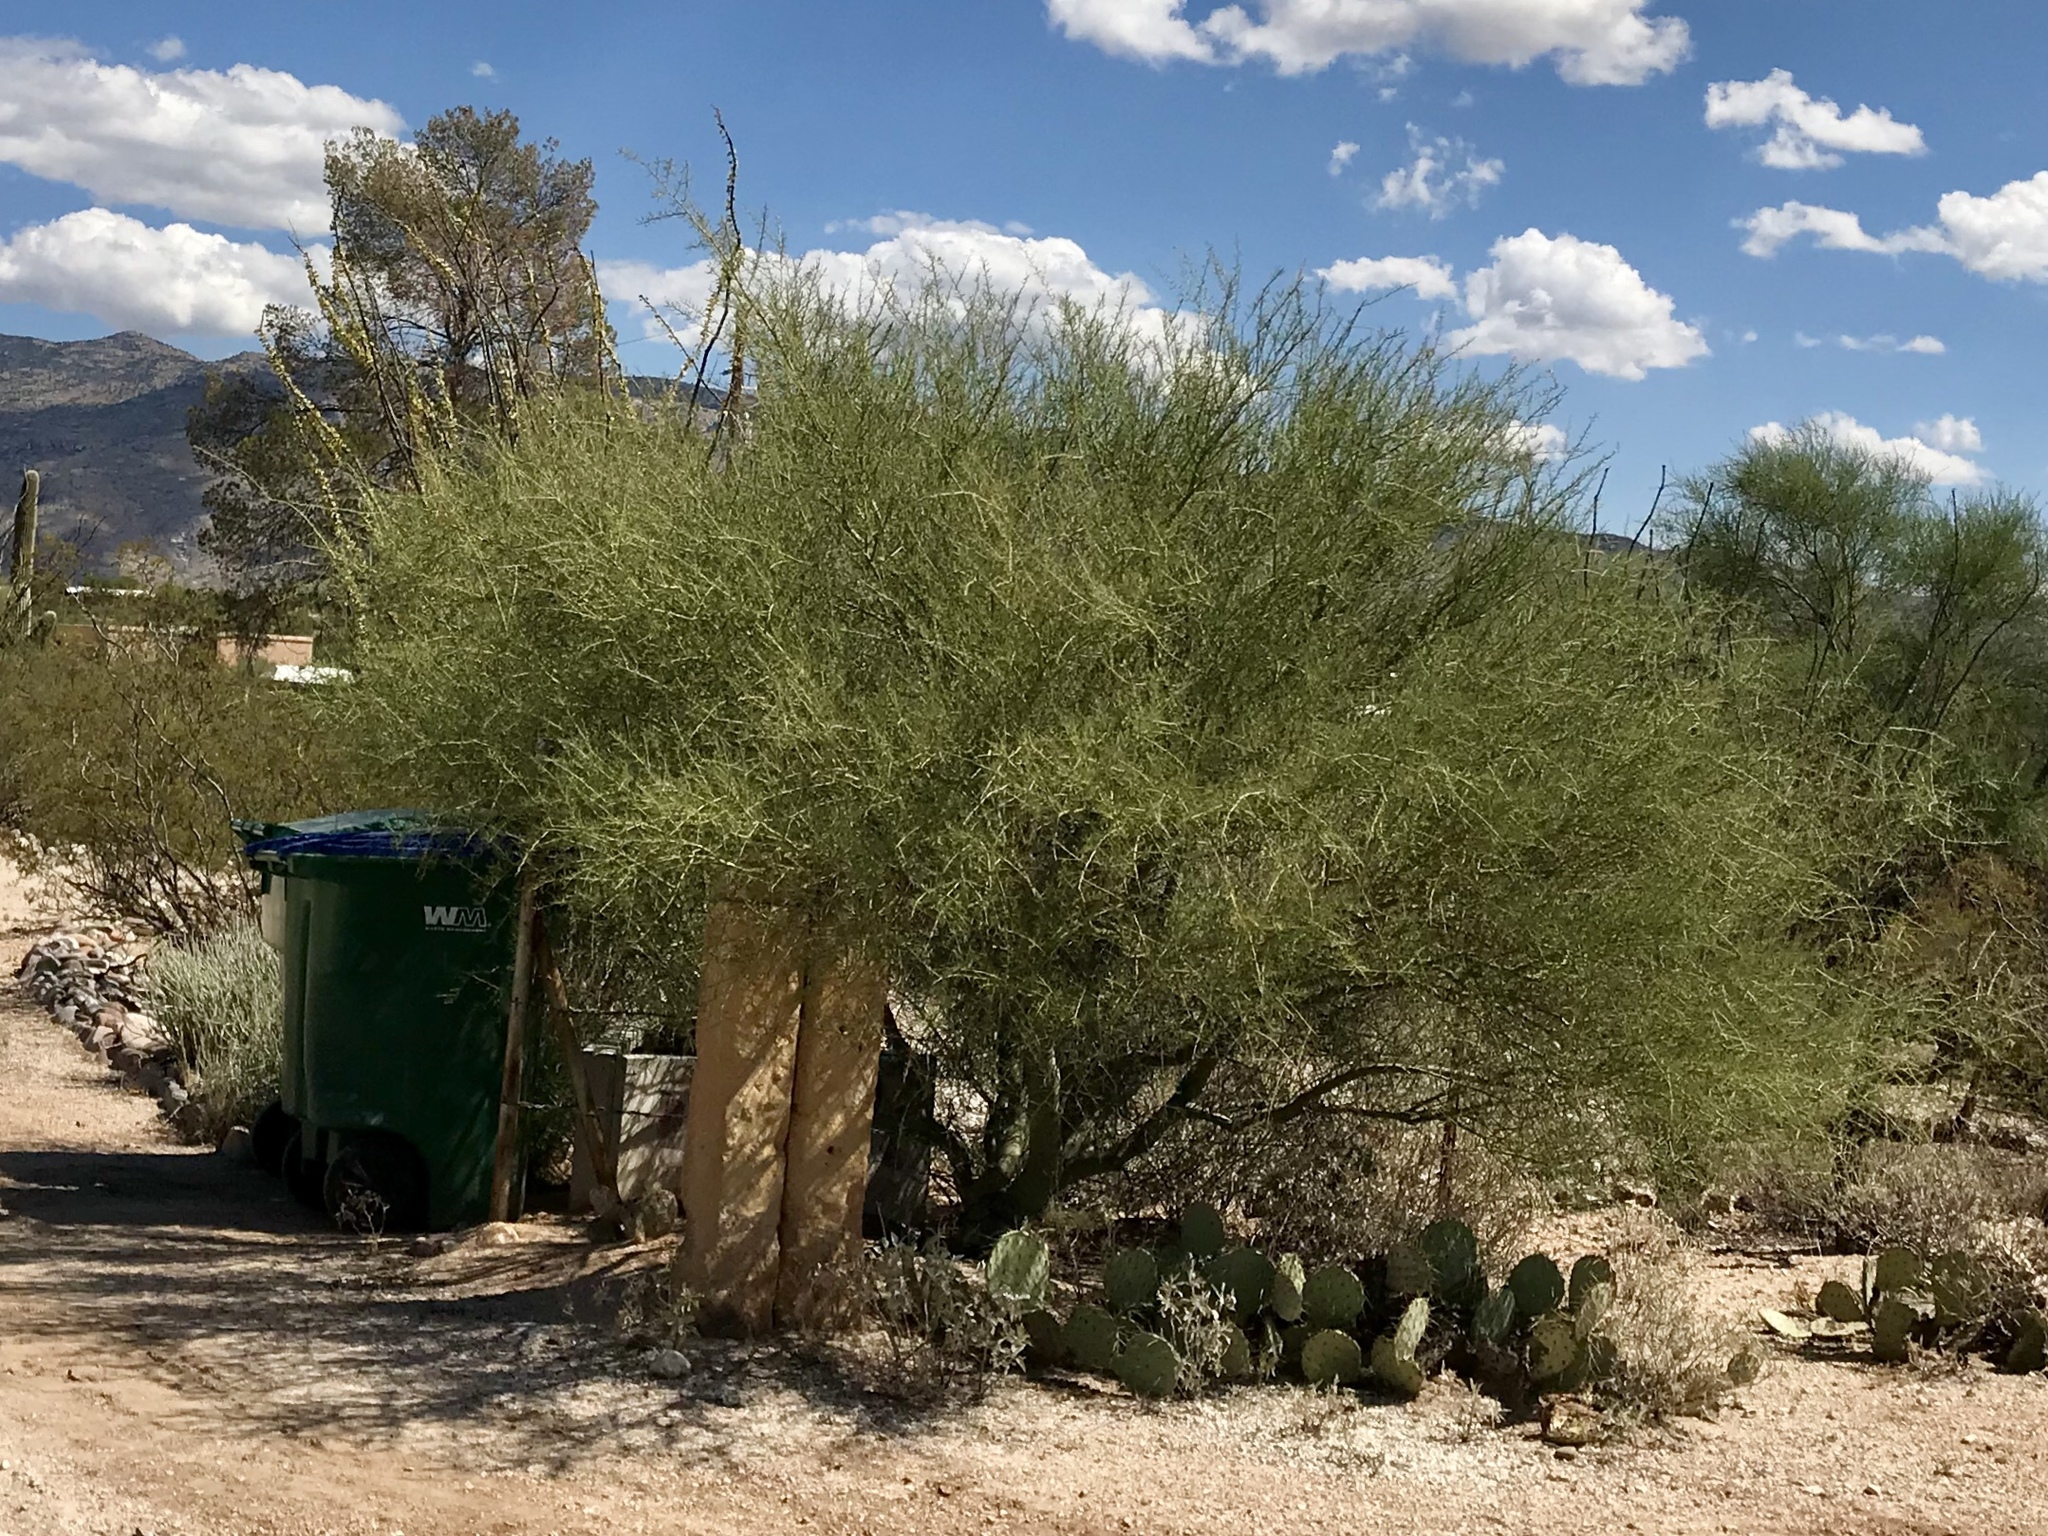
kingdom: Plantae
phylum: Tracheophyta
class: Magnoliopsida
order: Fabales
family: Fabaceae
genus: Parkinsonia
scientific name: Parkinsonia microphylla
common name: Yellow paloverde
